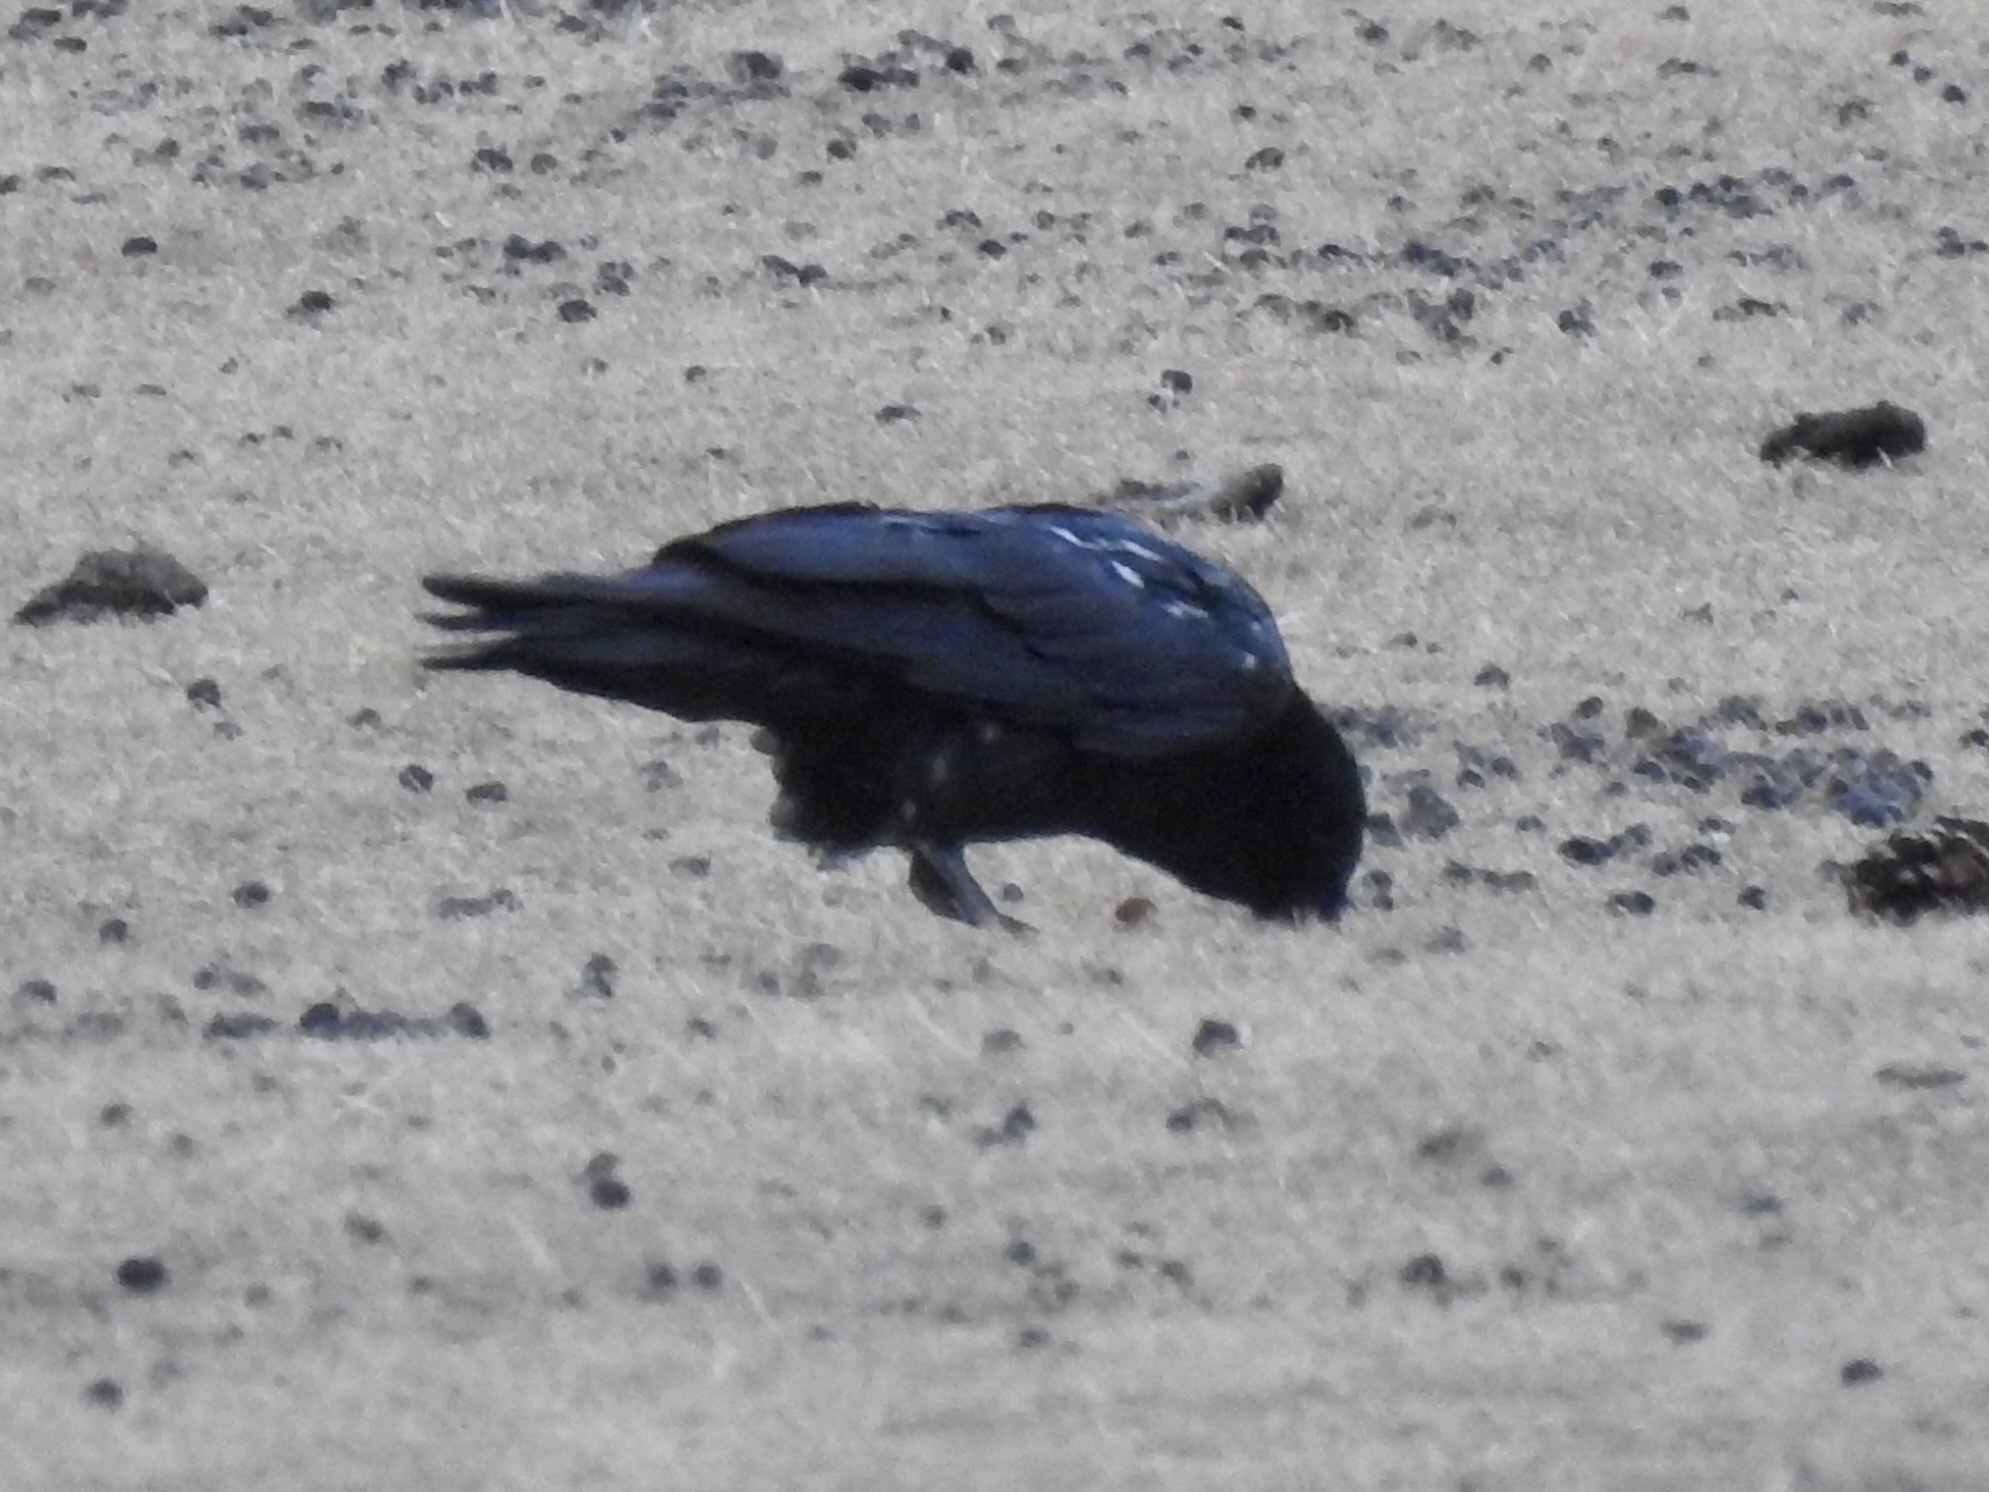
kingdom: Animalia
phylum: Chordata
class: Aves
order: Passeriformes
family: Corvidae
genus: Corvus
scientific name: Corvus corax
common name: Common raven
